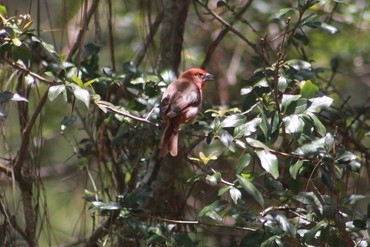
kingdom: Animalia
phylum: Chordata
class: Aves
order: Passeriformes
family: Cardinalidae
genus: Piranga
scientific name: Piranga flava
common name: Red tanager
